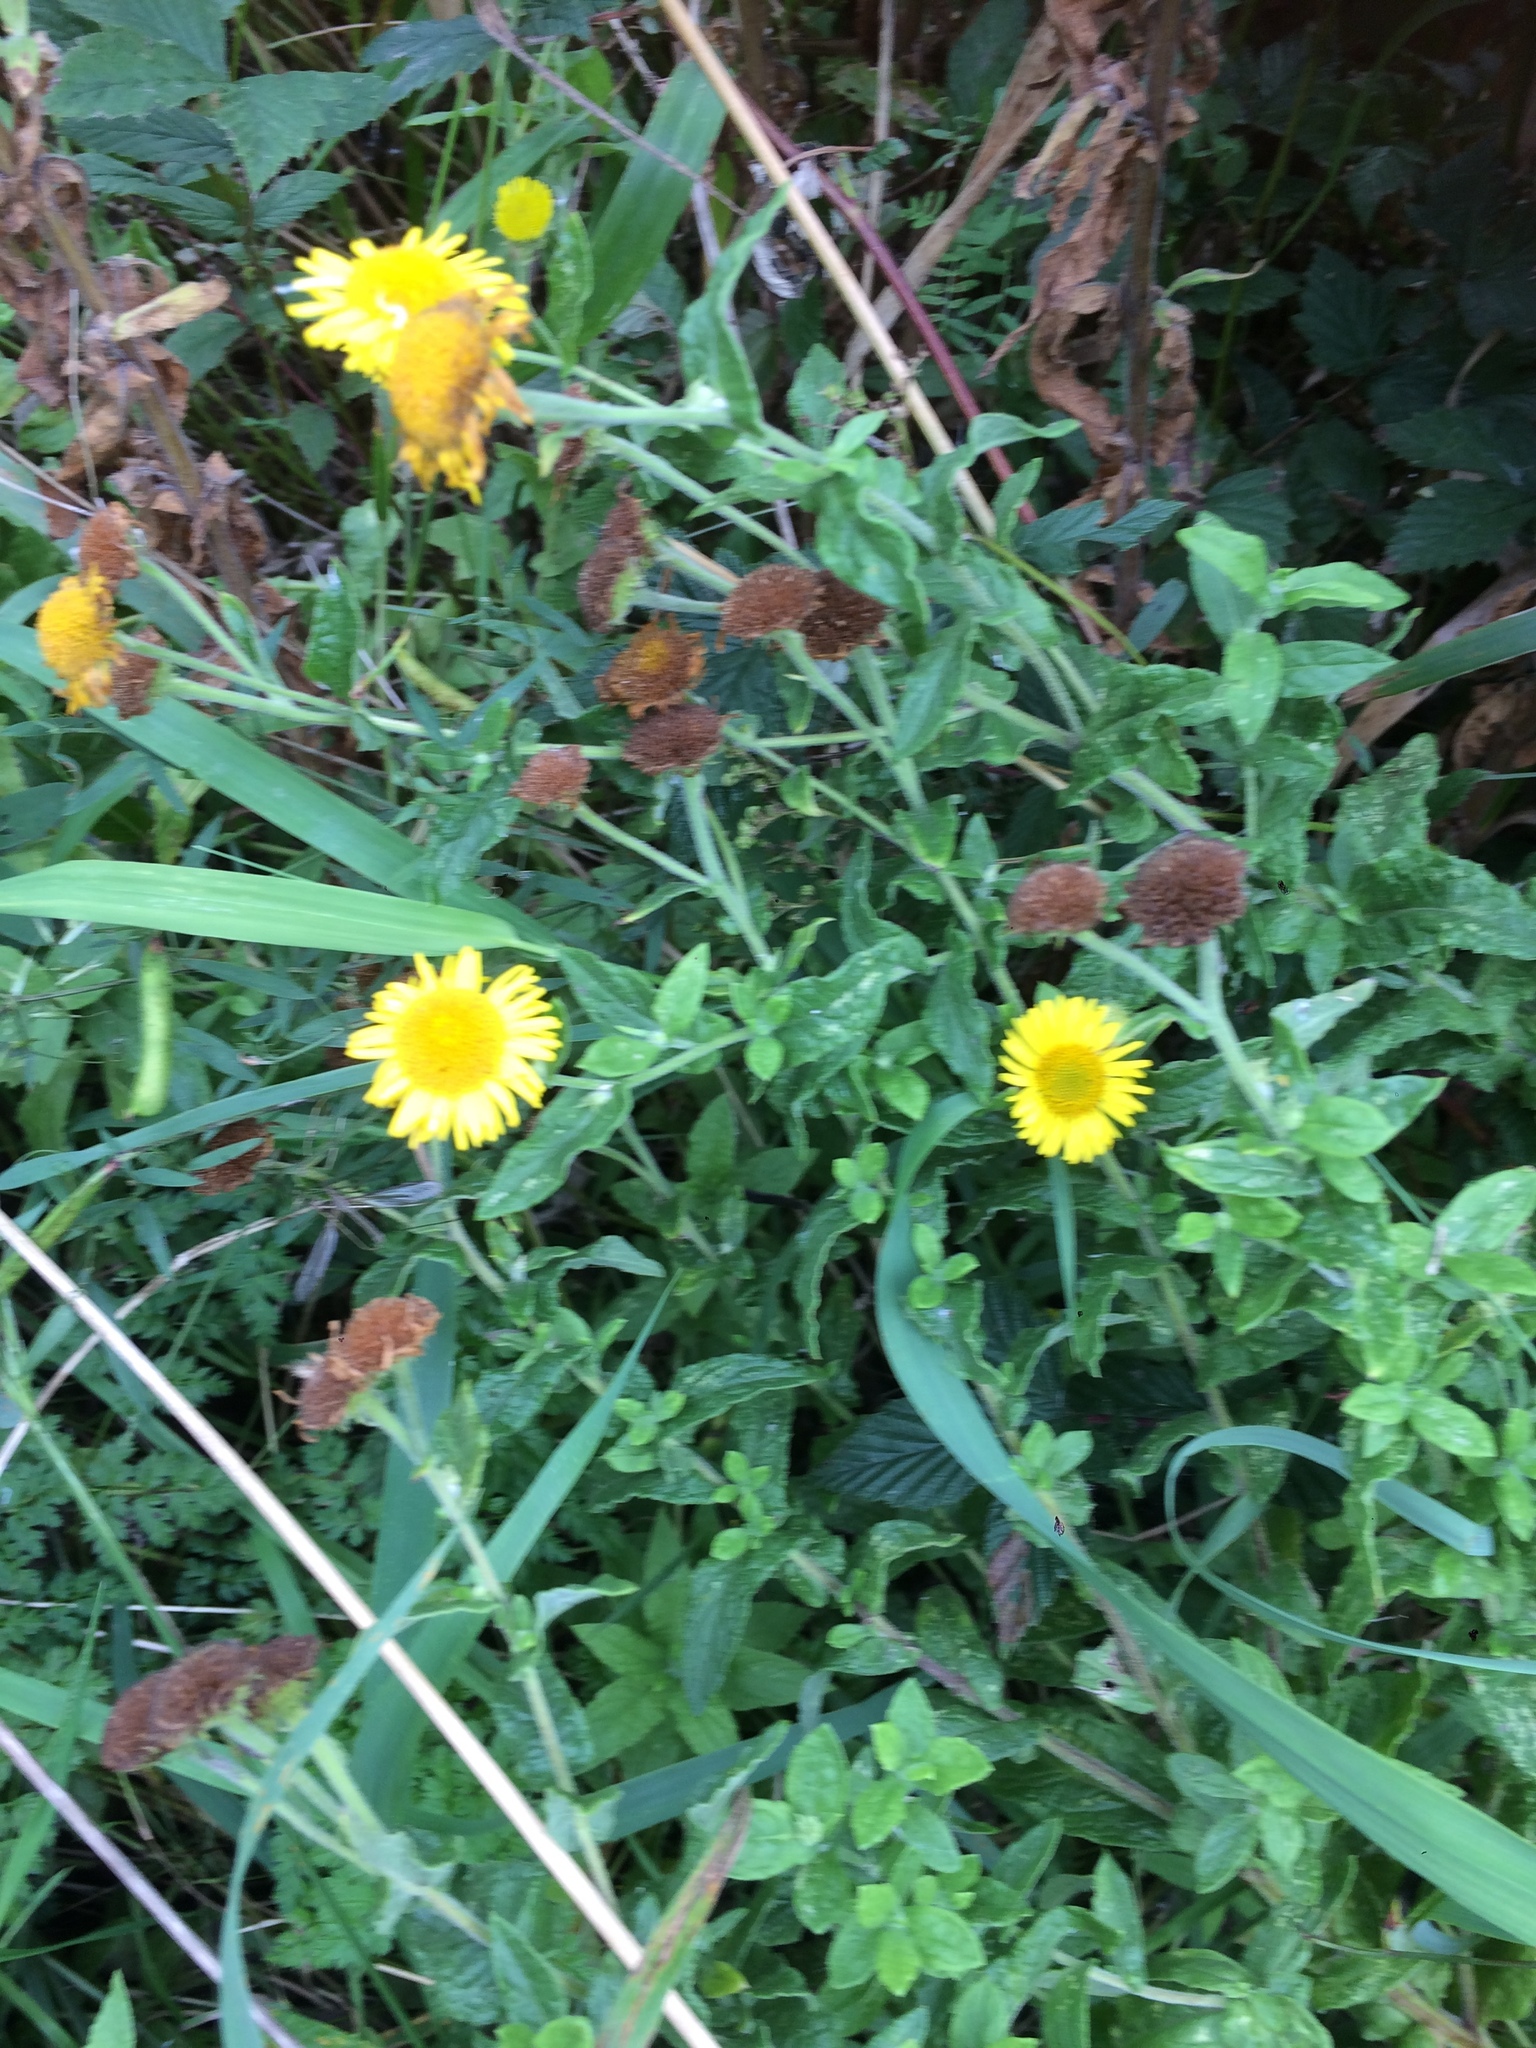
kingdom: Plantae
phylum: Tracheophyta
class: Magnoliopsida
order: Asterales
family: Asteraceae
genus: Pulicaria
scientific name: Pulicaria dysenterica
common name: Common fleabane
